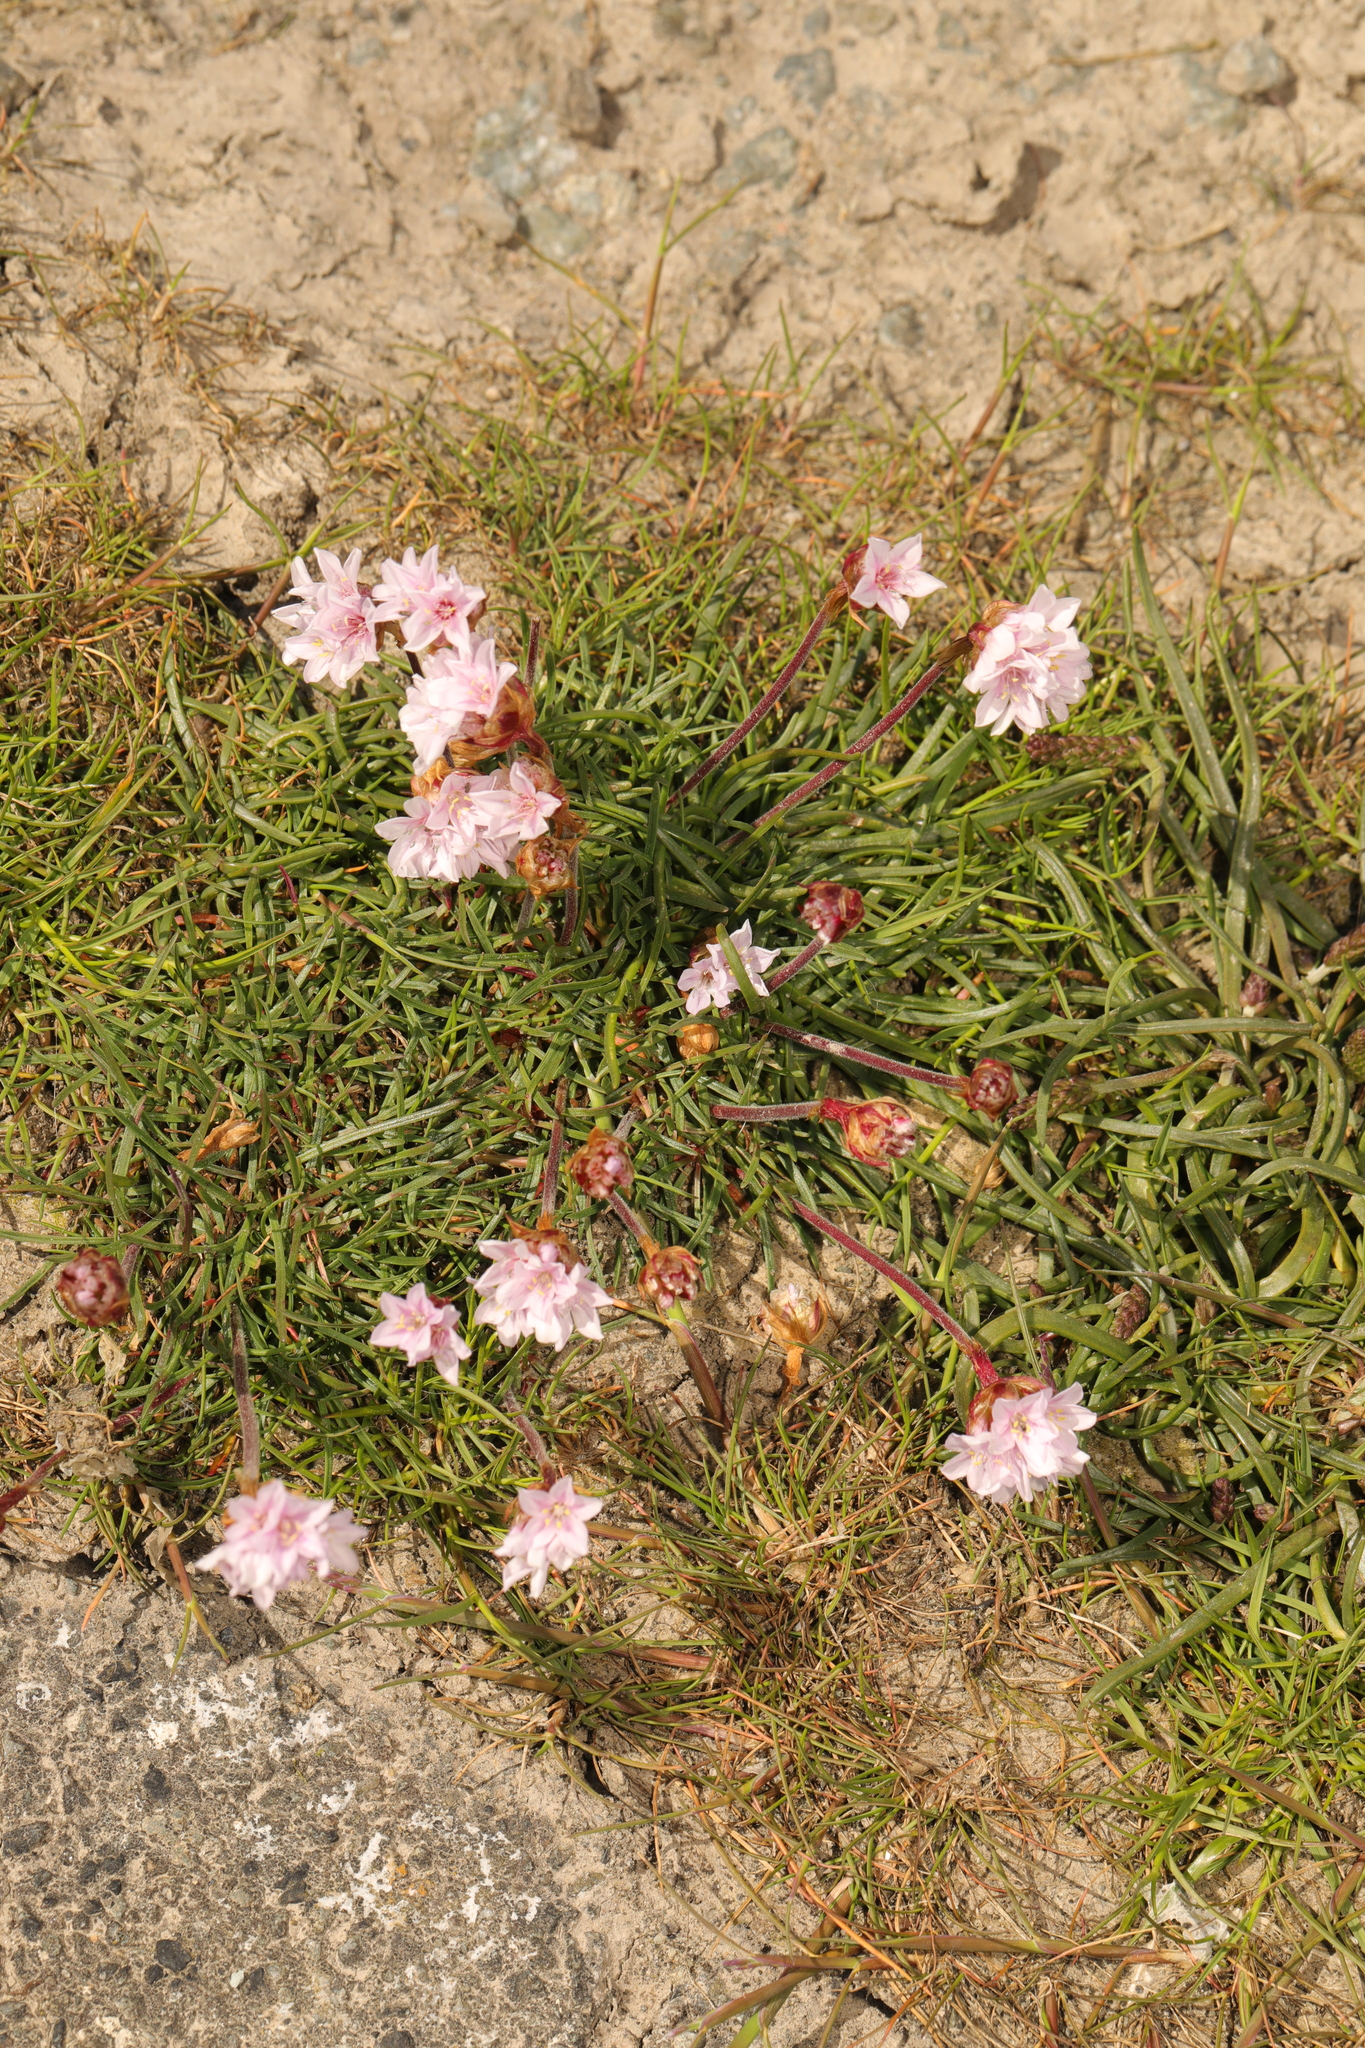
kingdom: Plantae
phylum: Tracheophyta
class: Magnoliopsida
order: Caryophyllales
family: Plumbaginaceae
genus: Armeria
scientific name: Armeria maritima
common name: Thrift
